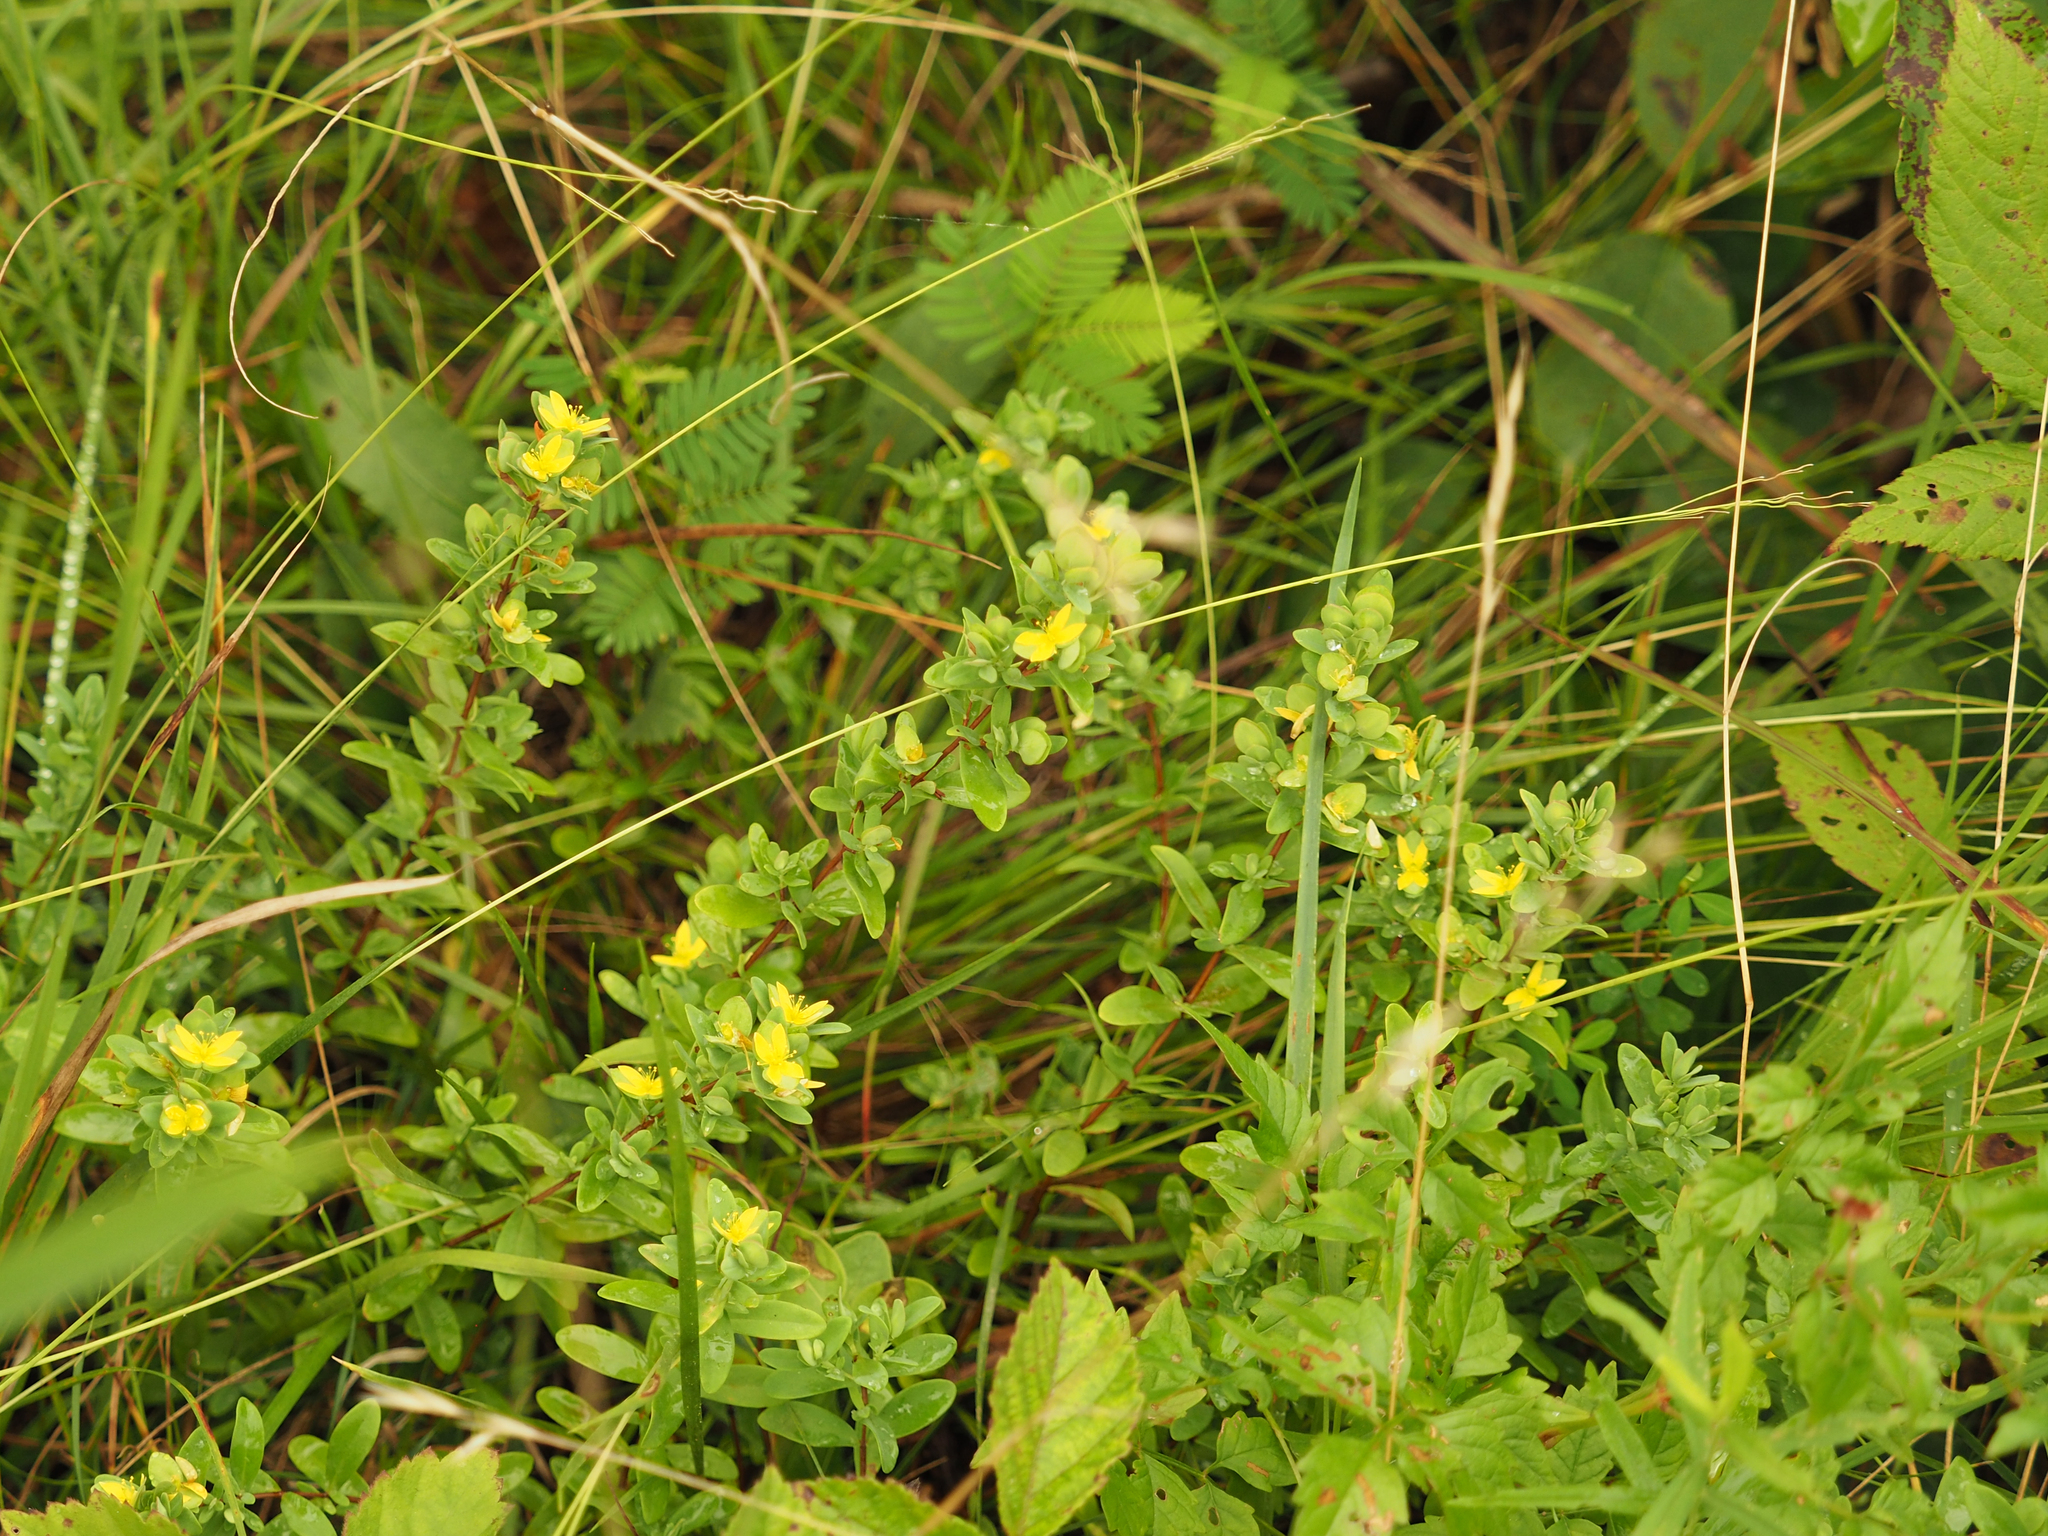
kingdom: Plantae
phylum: Tracheophyta
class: Magnoliopsida
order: Malpighiales
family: Hypericaceae
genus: Hypericum
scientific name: Hypericum hypericoides
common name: St. andrew's cross
